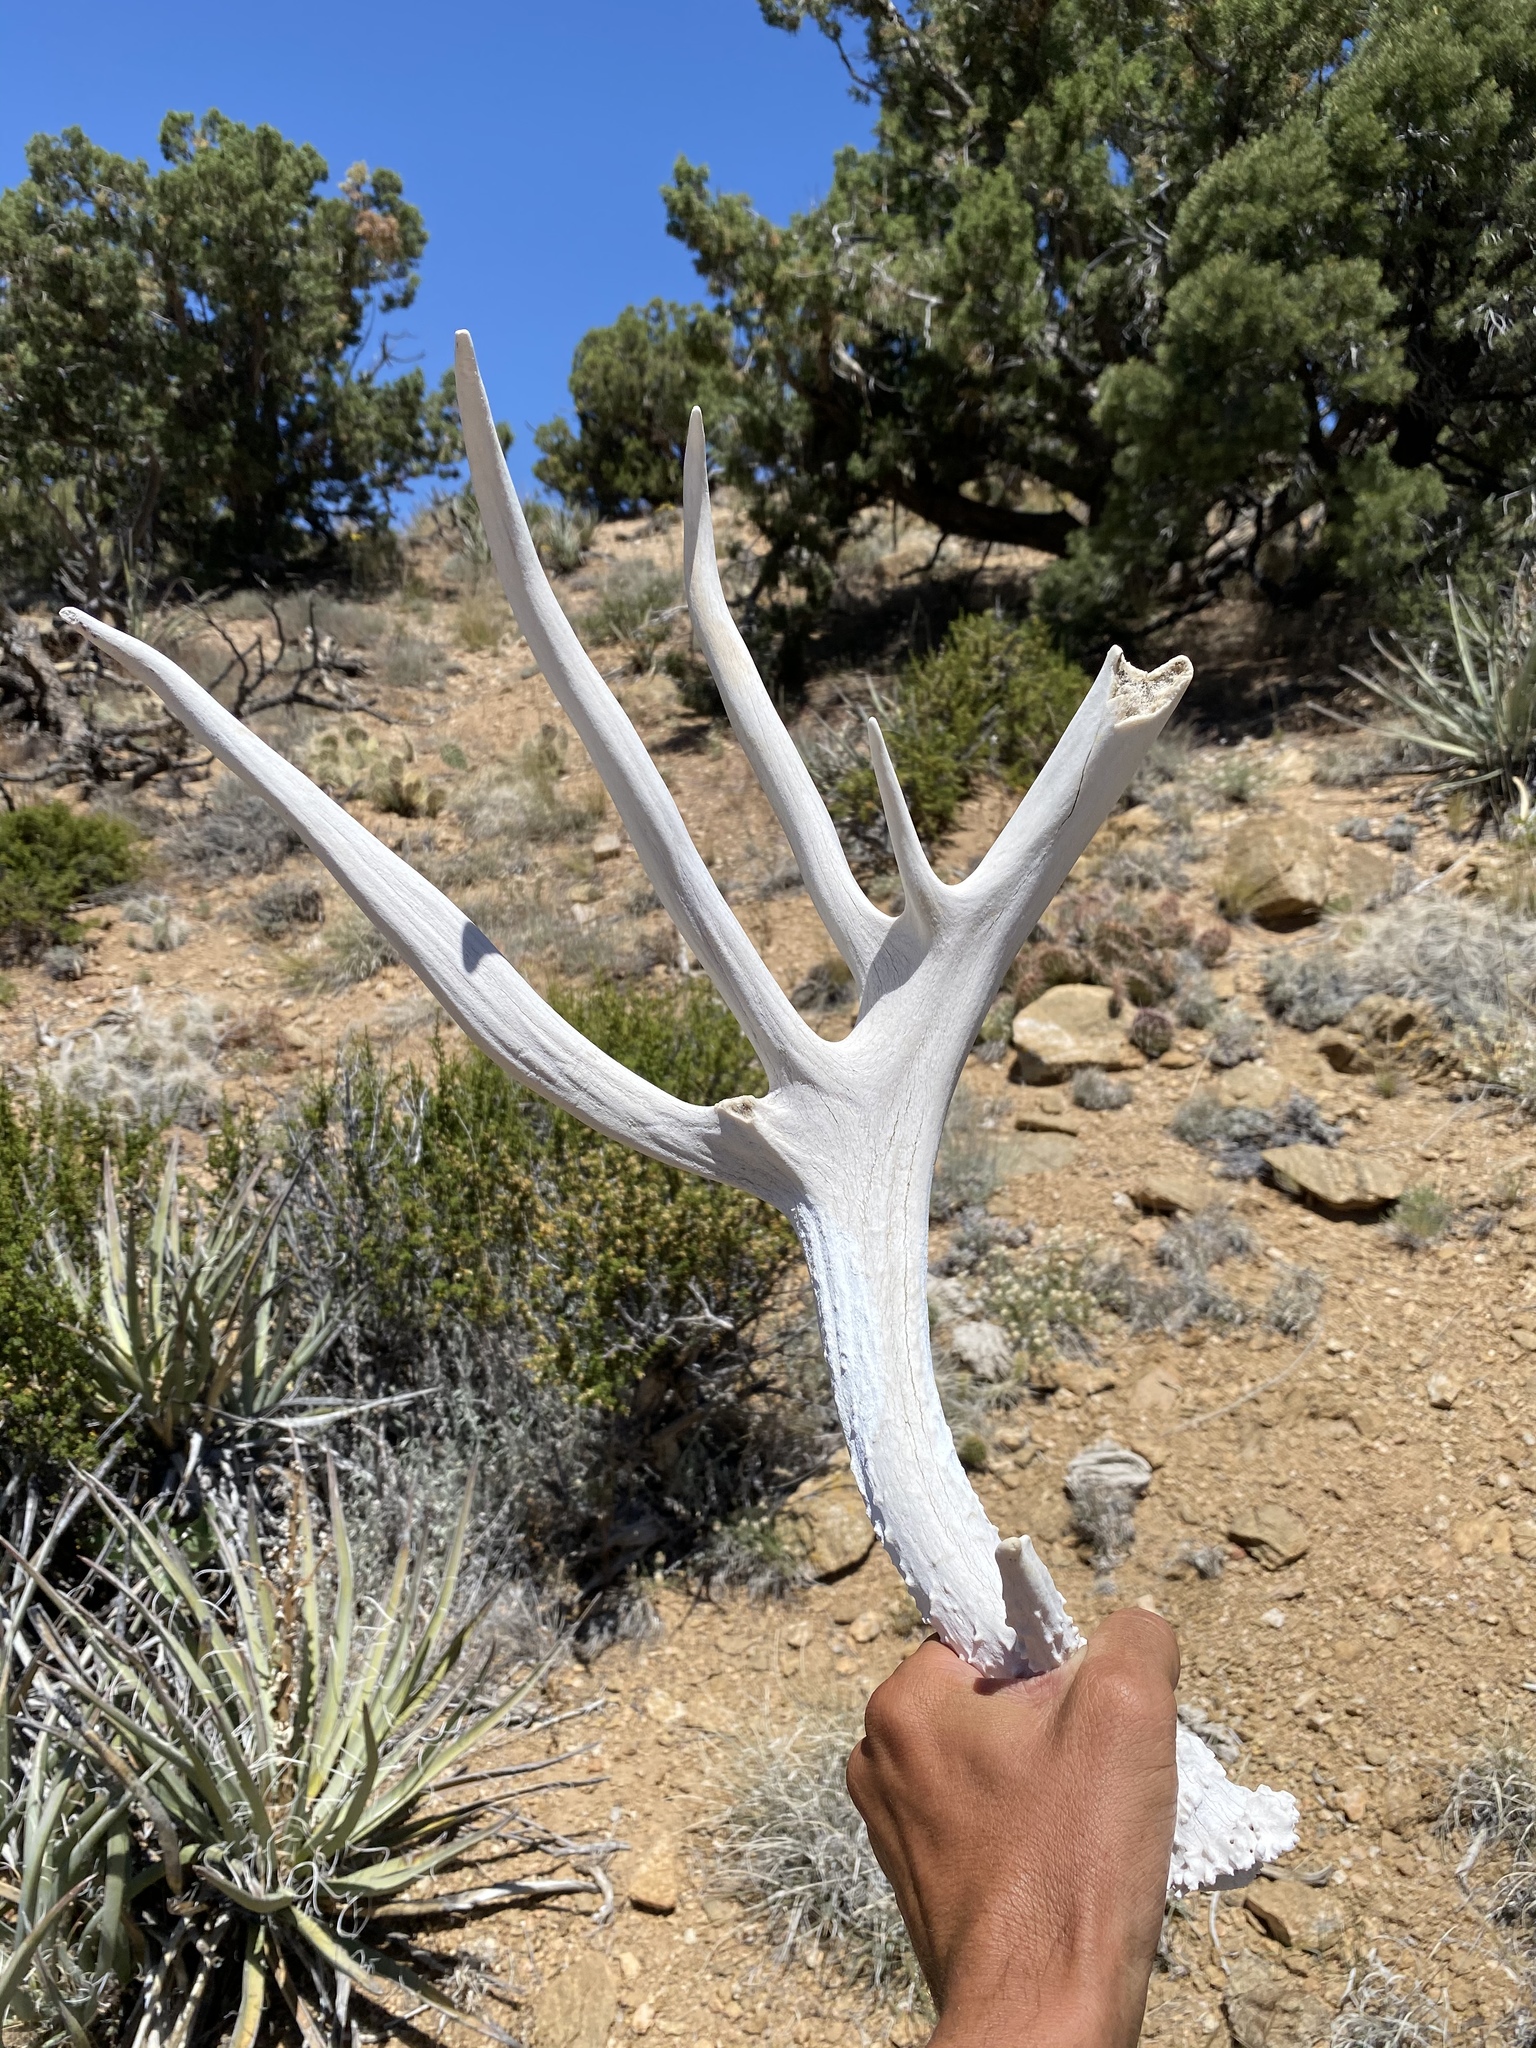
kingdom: Animalia
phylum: Chordata
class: Mammalia
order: Artiodactyla
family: Cervidae
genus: Odocoileus
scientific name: Odocoileus hemionus
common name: Mule deer
